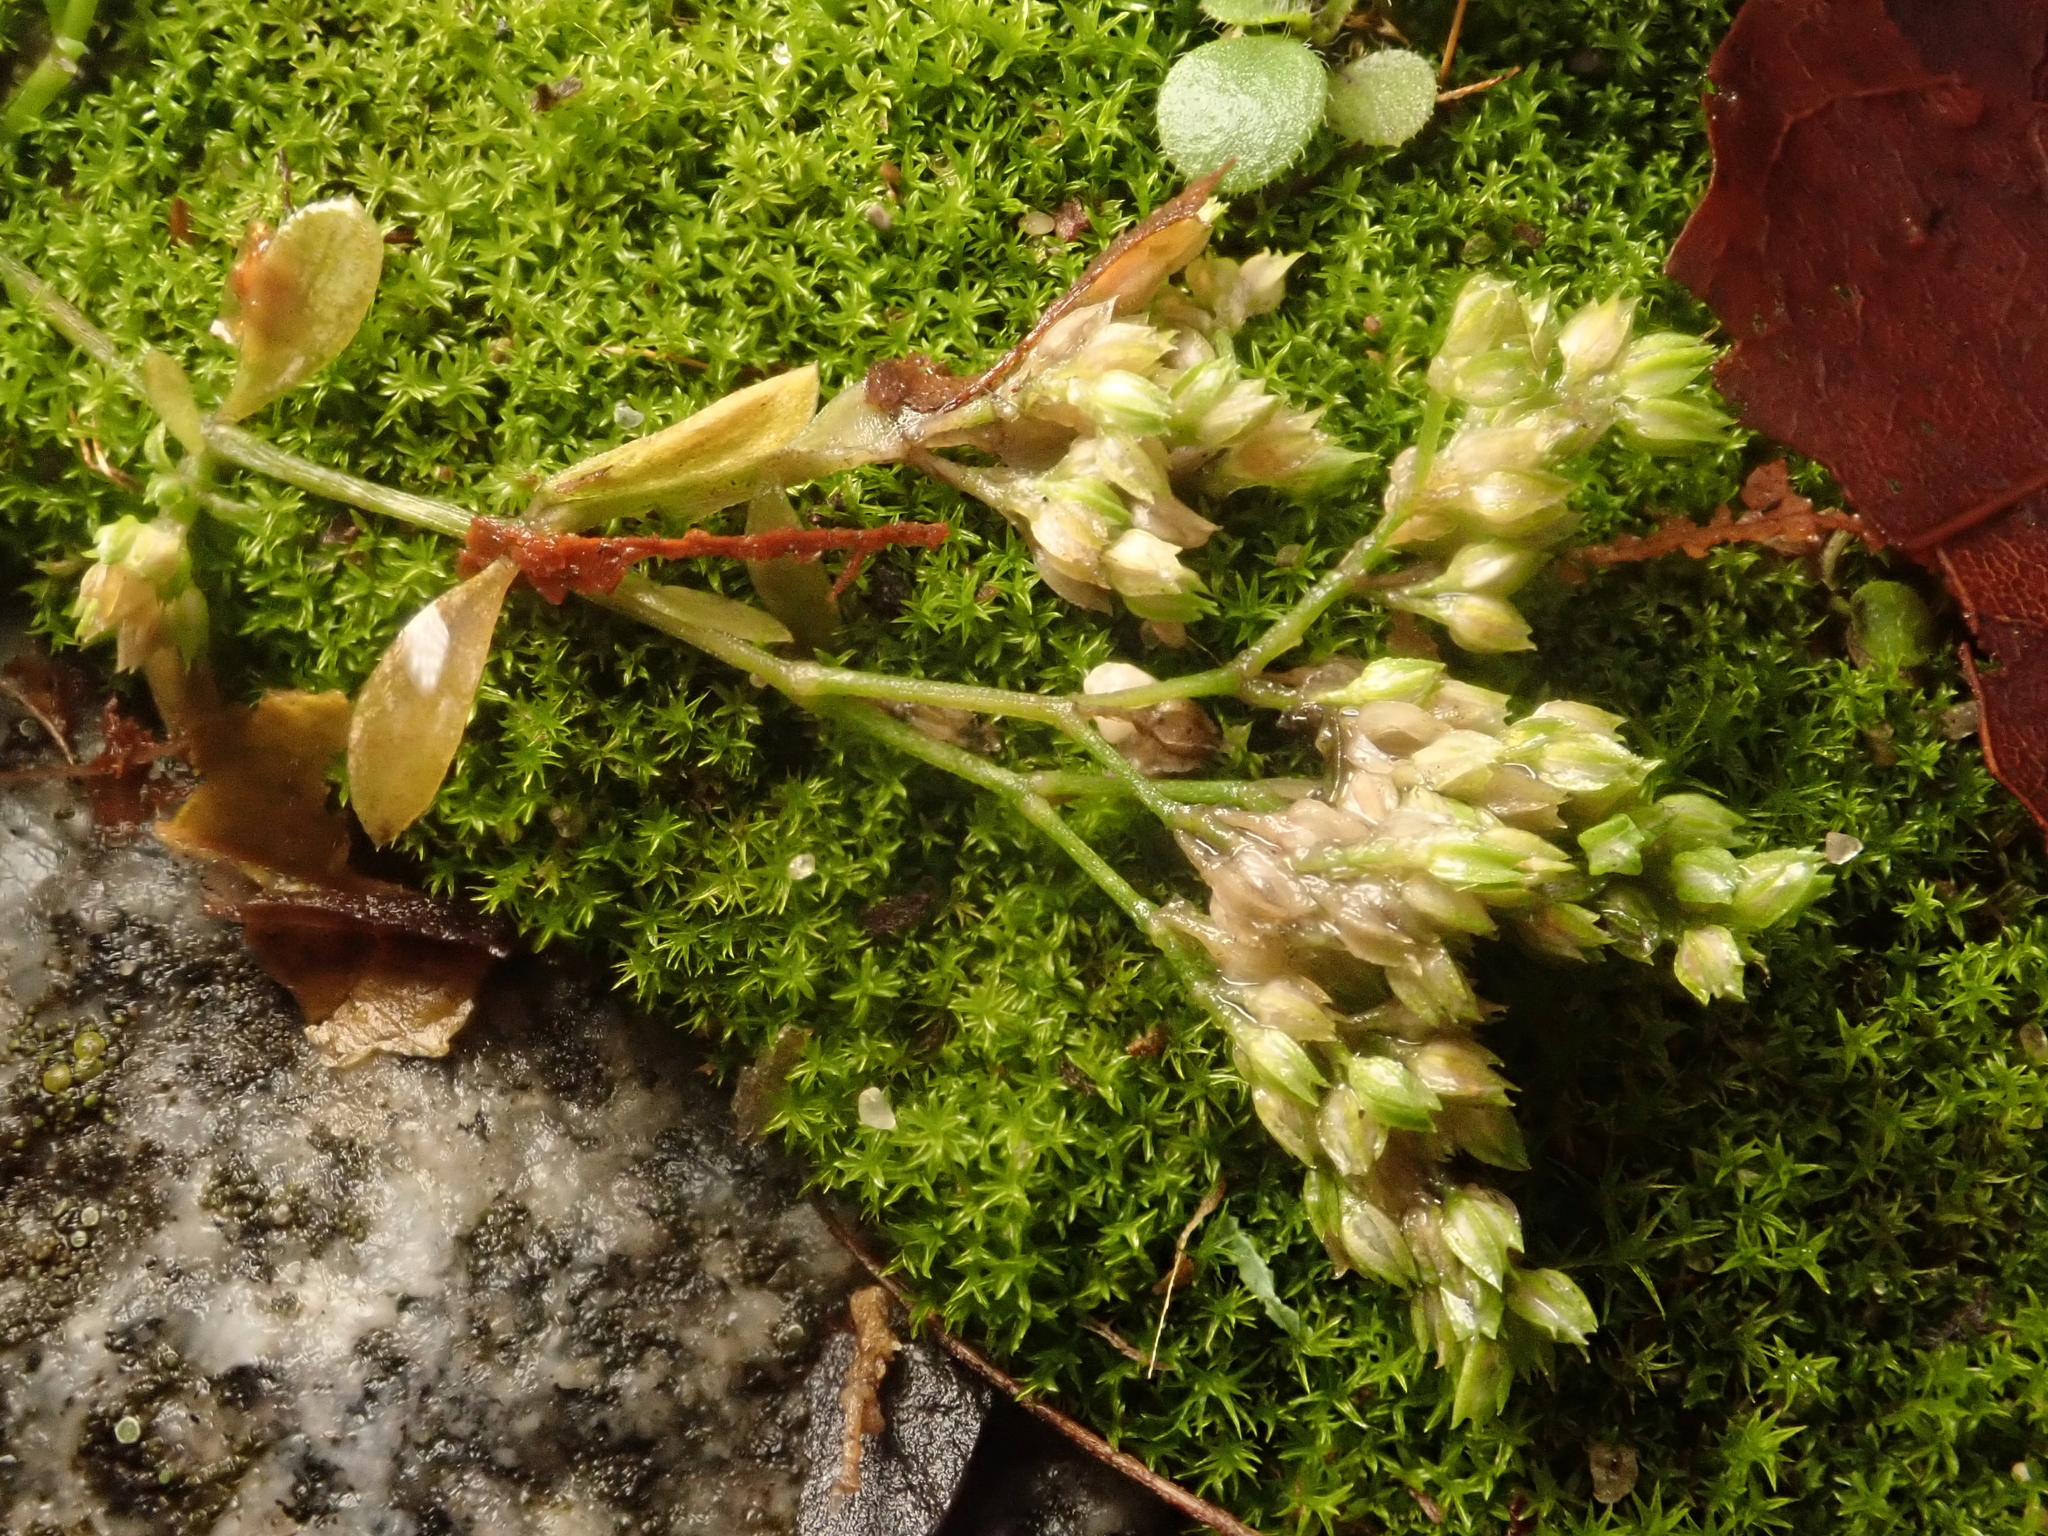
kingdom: Plantae
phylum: Tracheophyta
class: Magnoliopsida
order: Caryophyllales
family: Caryophyllaceae
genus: Polycarpon
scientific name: Polycarpon tetraphyllum
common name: Four-leaved all-seed
